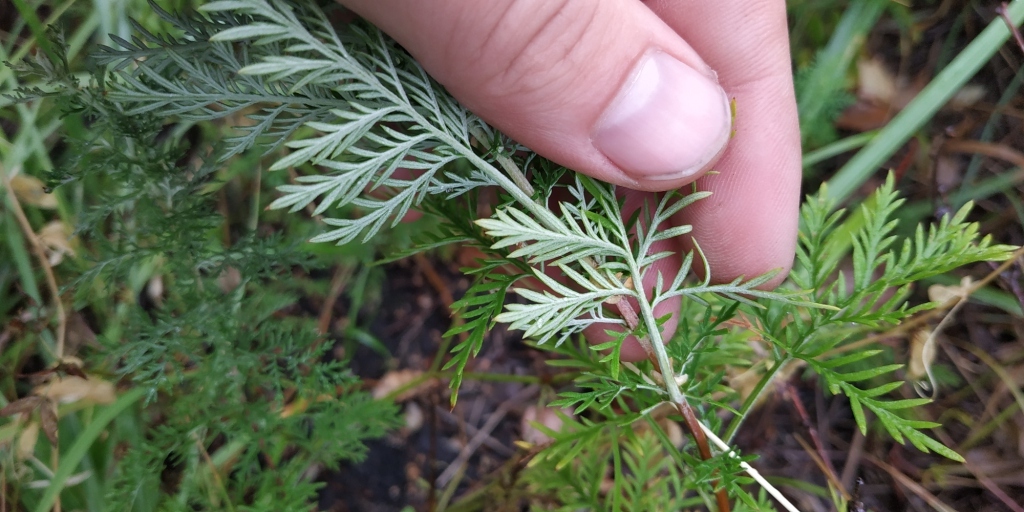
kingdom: Plantae
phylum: Tracheophyta
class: Magnoliopsida
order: Asterales
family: Asteraceae
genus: Artemisia
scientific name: Artemisia macrantha
